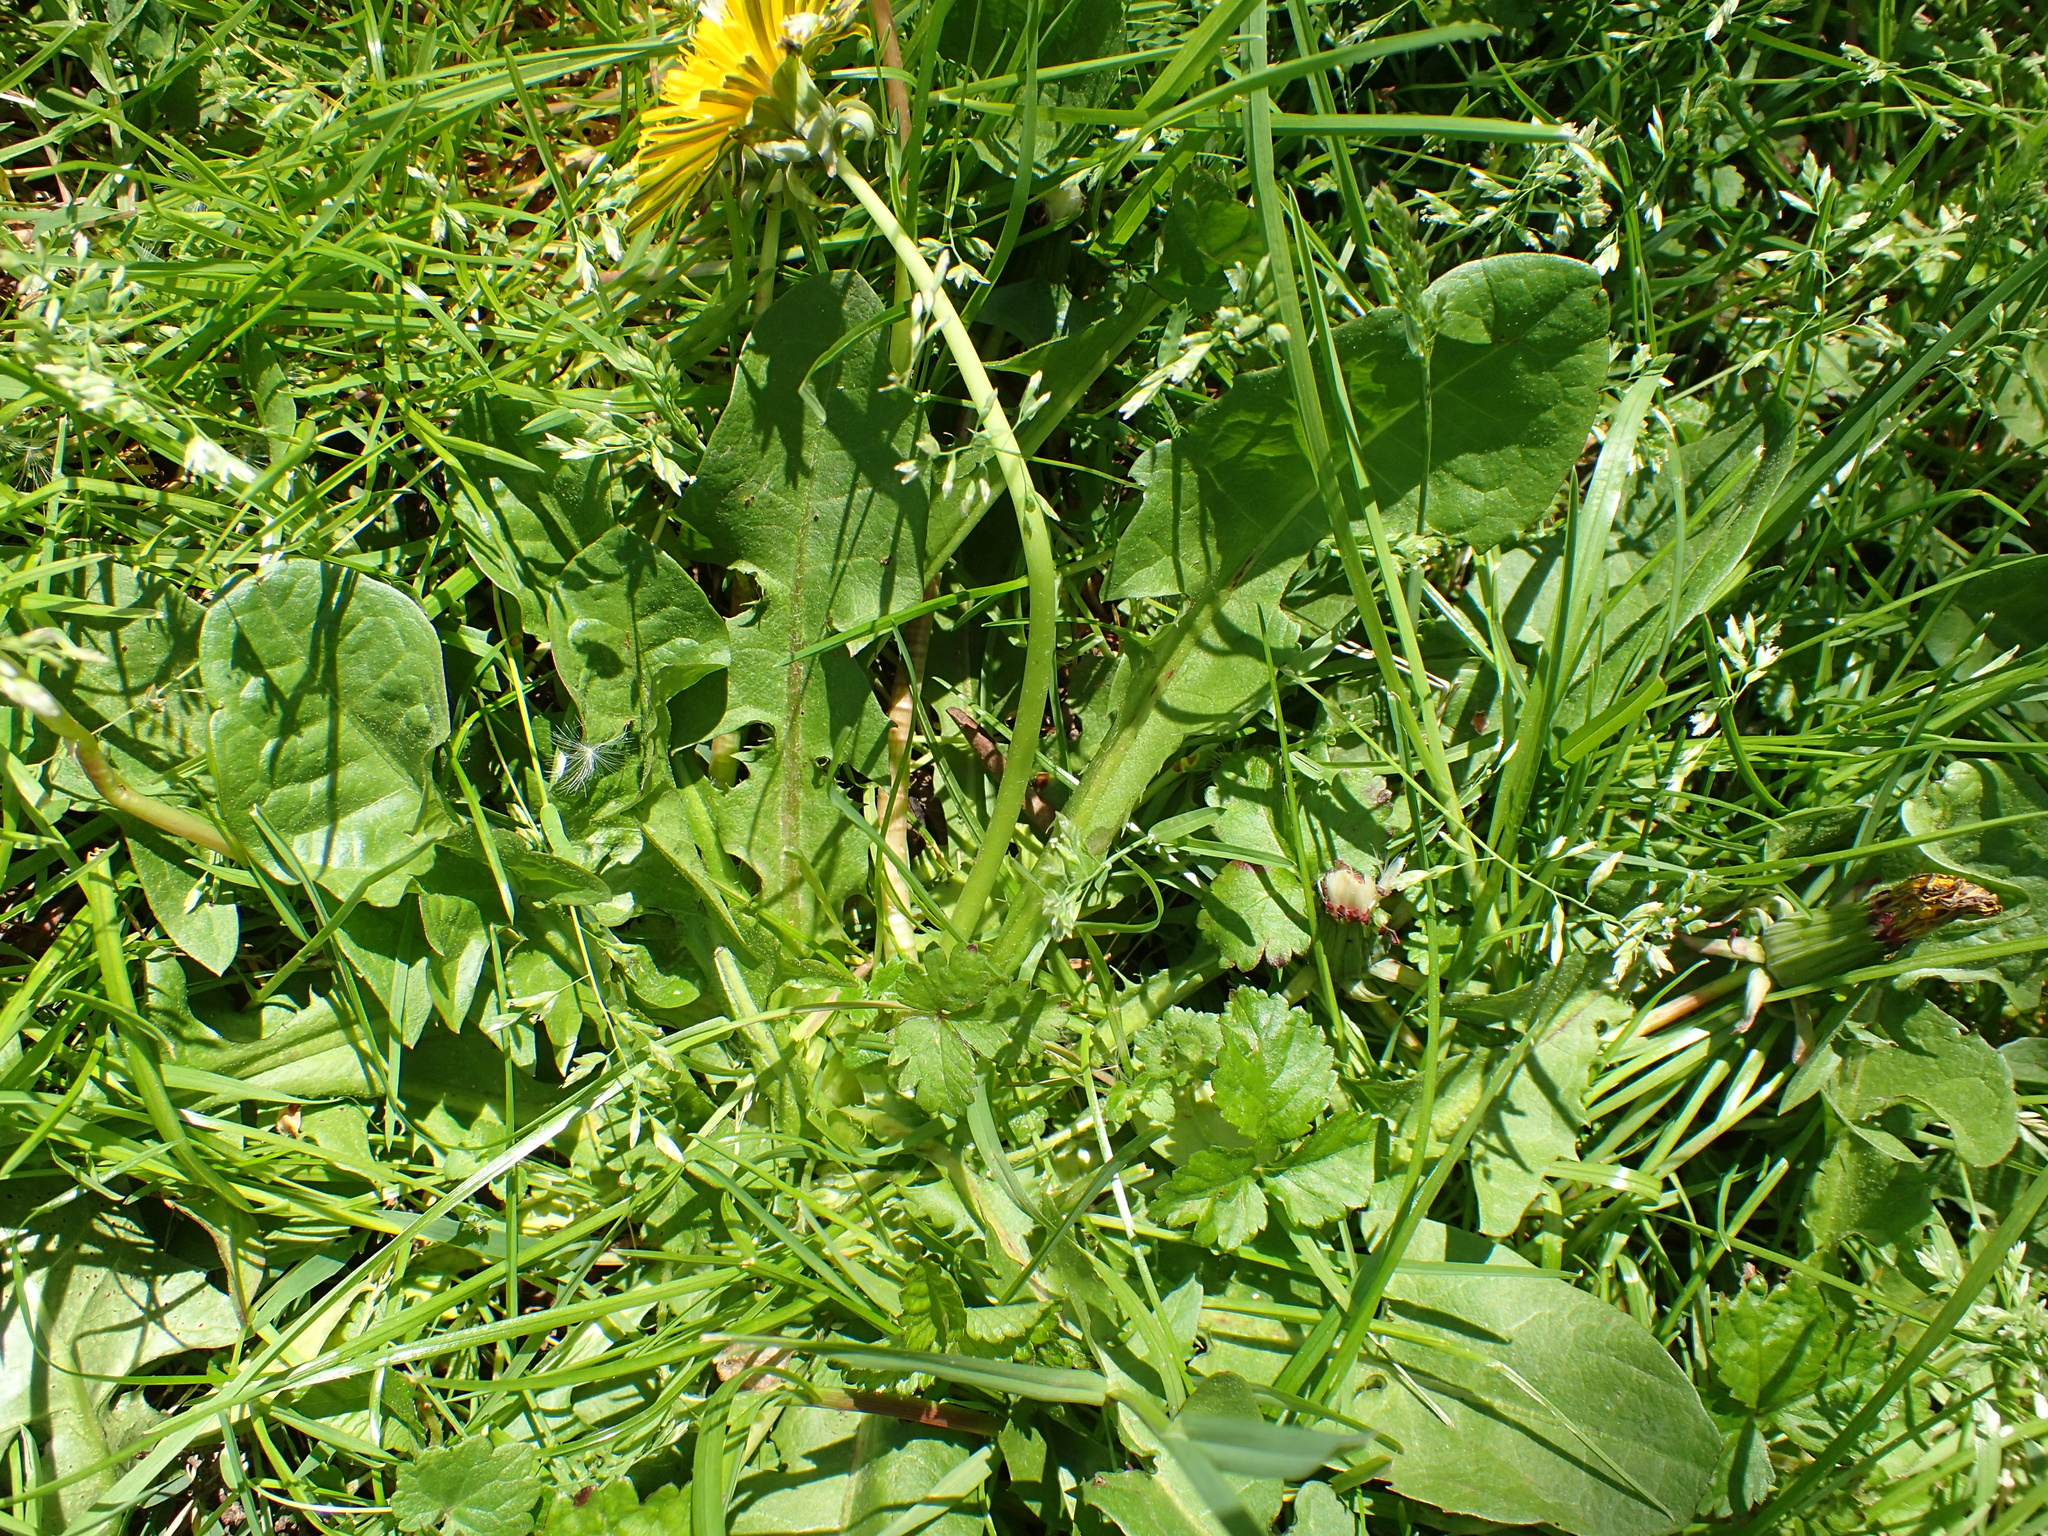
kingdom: Plantae
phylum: Tracheophyta
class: Magnoliopsida
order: Asterales
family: Asteraceae
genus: Taraxacum
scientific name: Taraxacum officinale
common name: Common dandelion
